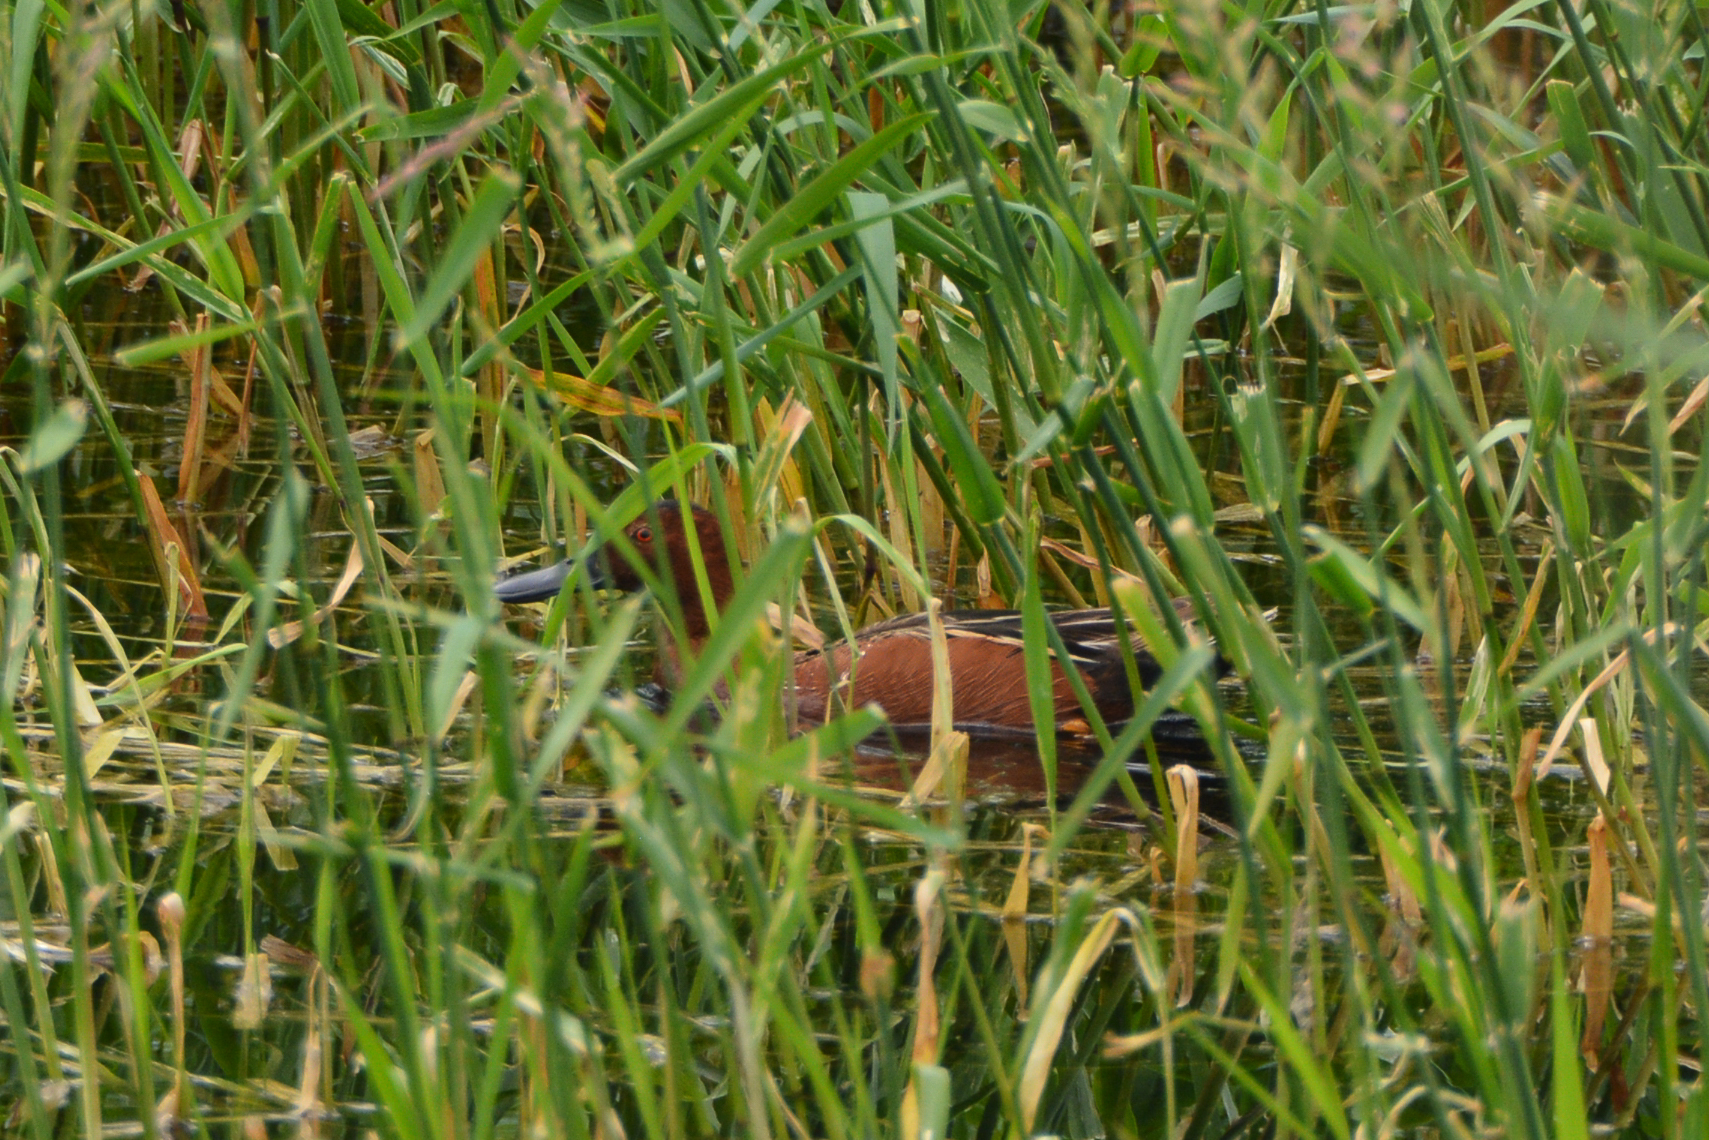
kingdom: Animalia
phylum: Chordata
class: Aves
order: Anseriformes
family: Anatidae
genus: Spatula
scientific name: Spatula cyanoptera
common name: Cinnamon teal
